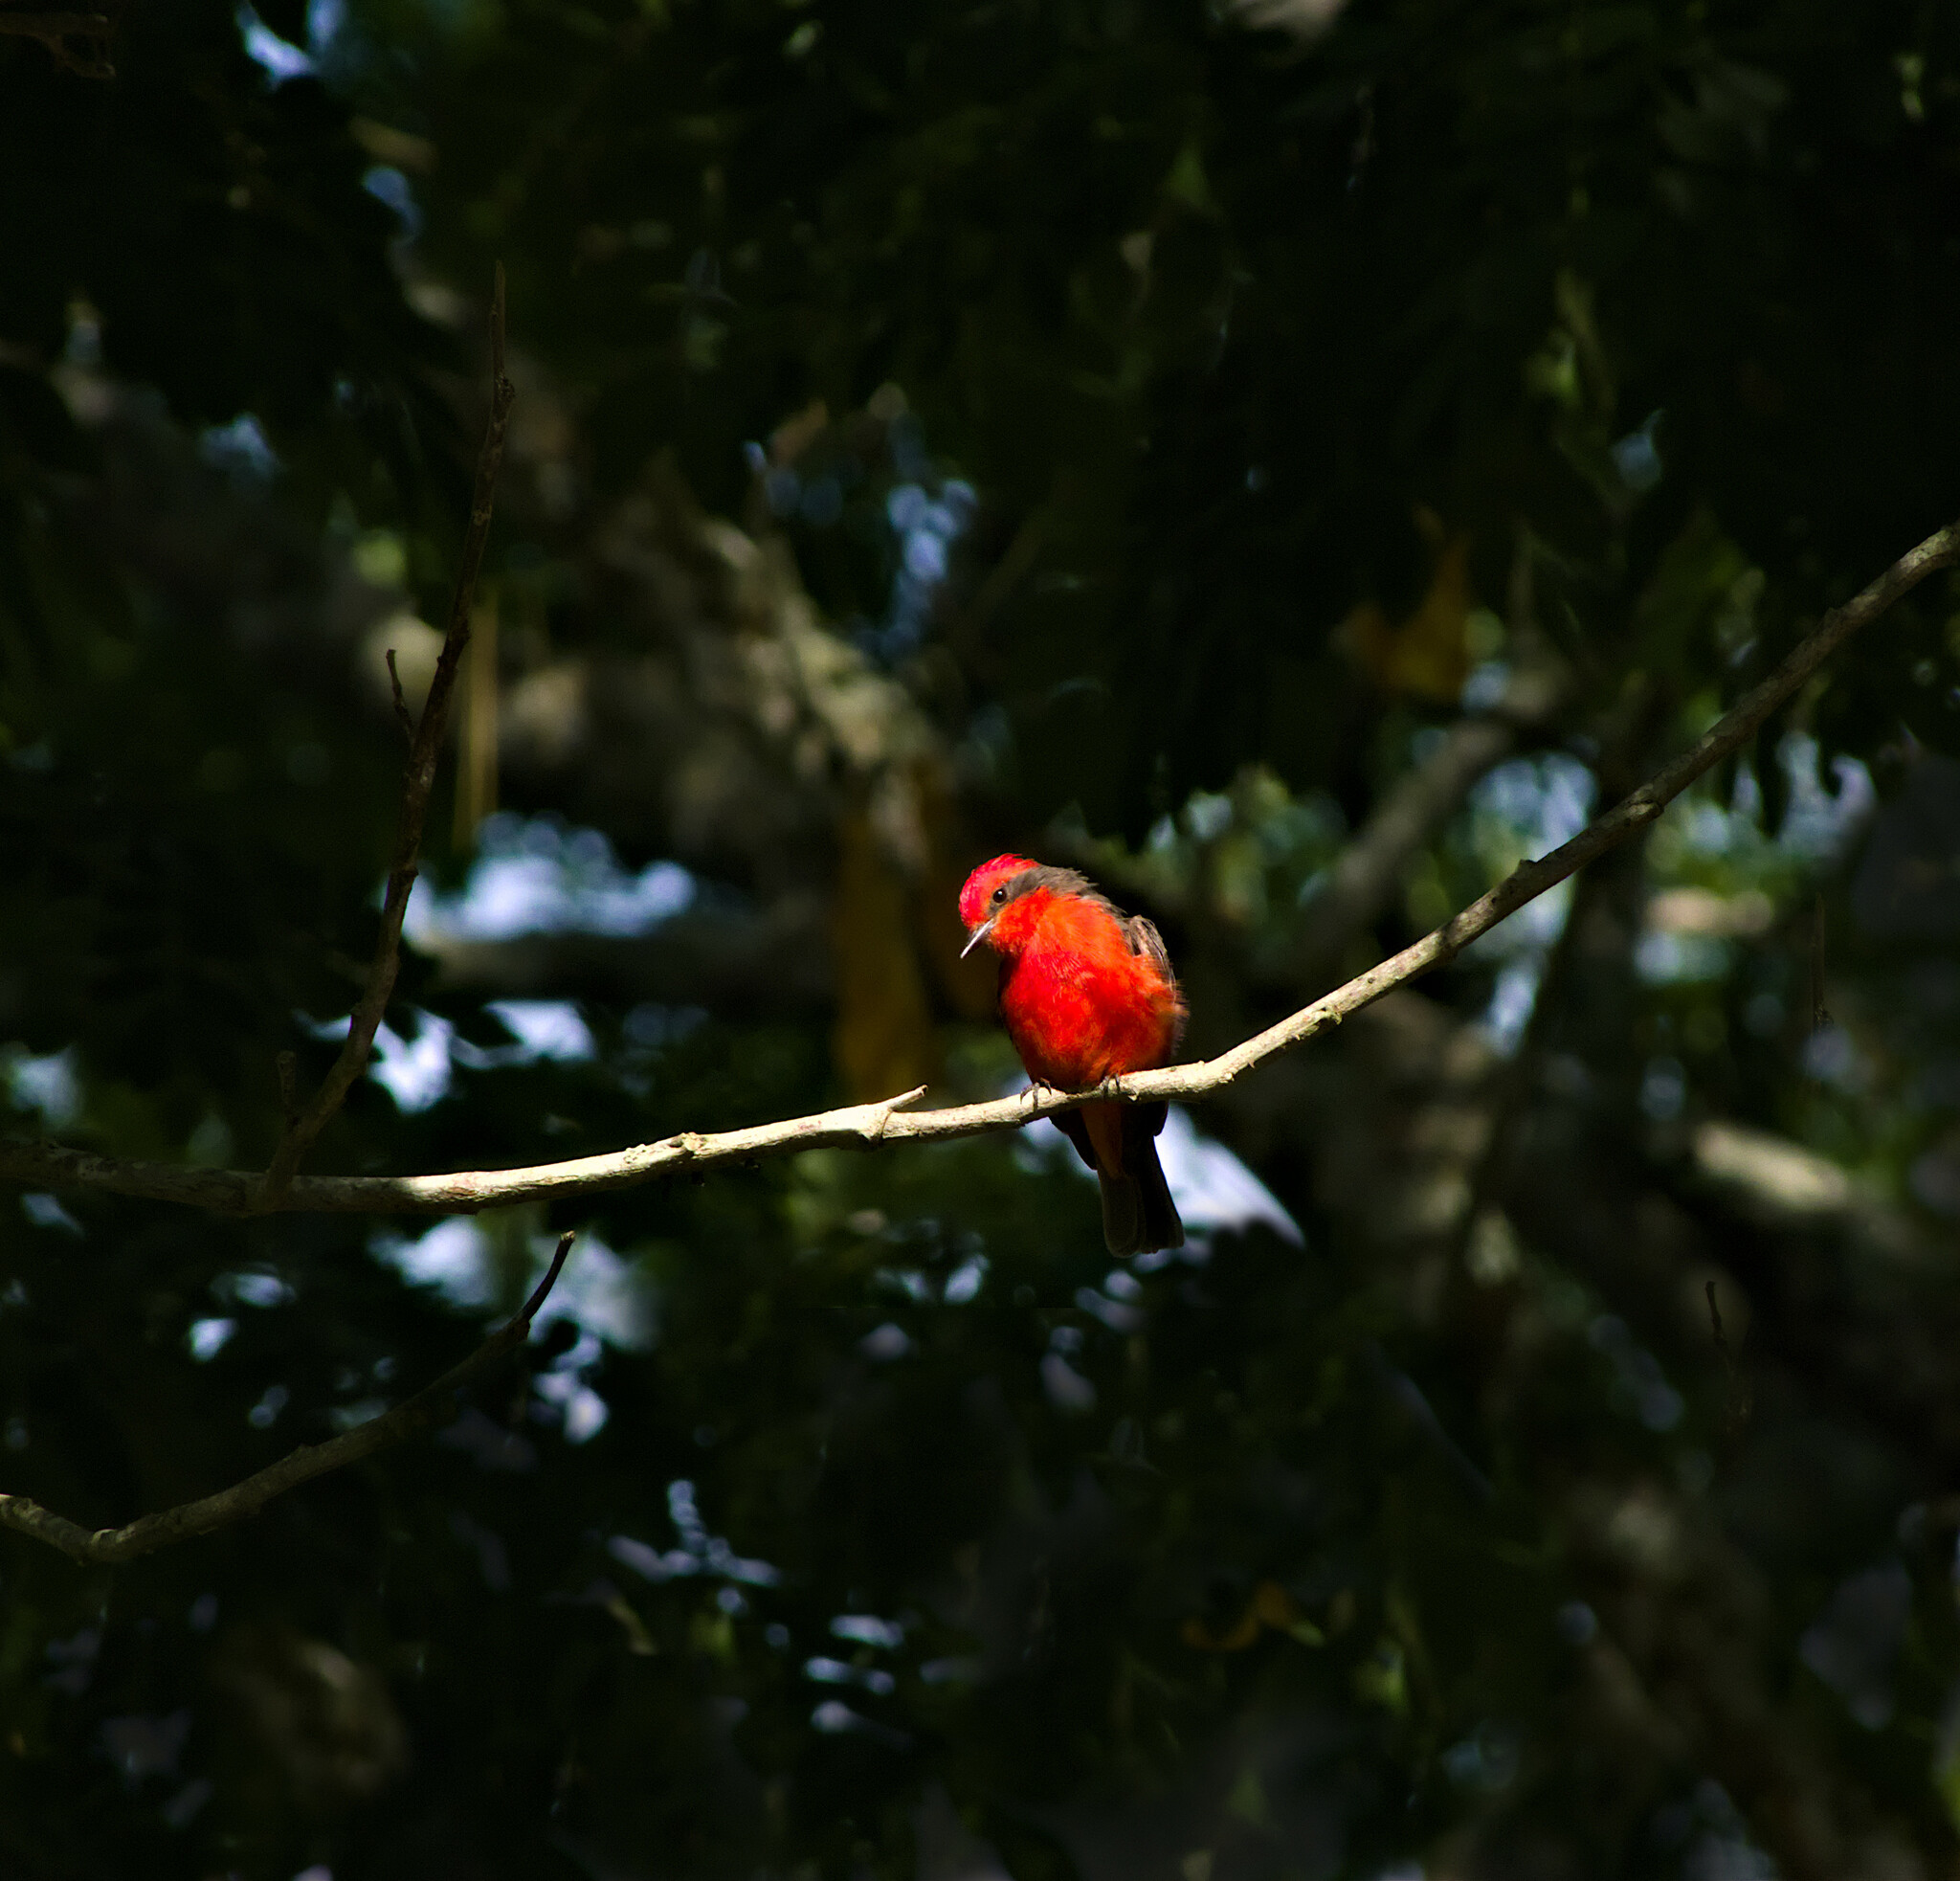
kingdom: Animalia
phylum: Chordata
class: Aves
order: Passeriformes
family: Tyrannidae
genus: Pyrocephalus
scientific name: Pyrocephalus rubinus
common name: Vermilion flycatcher
